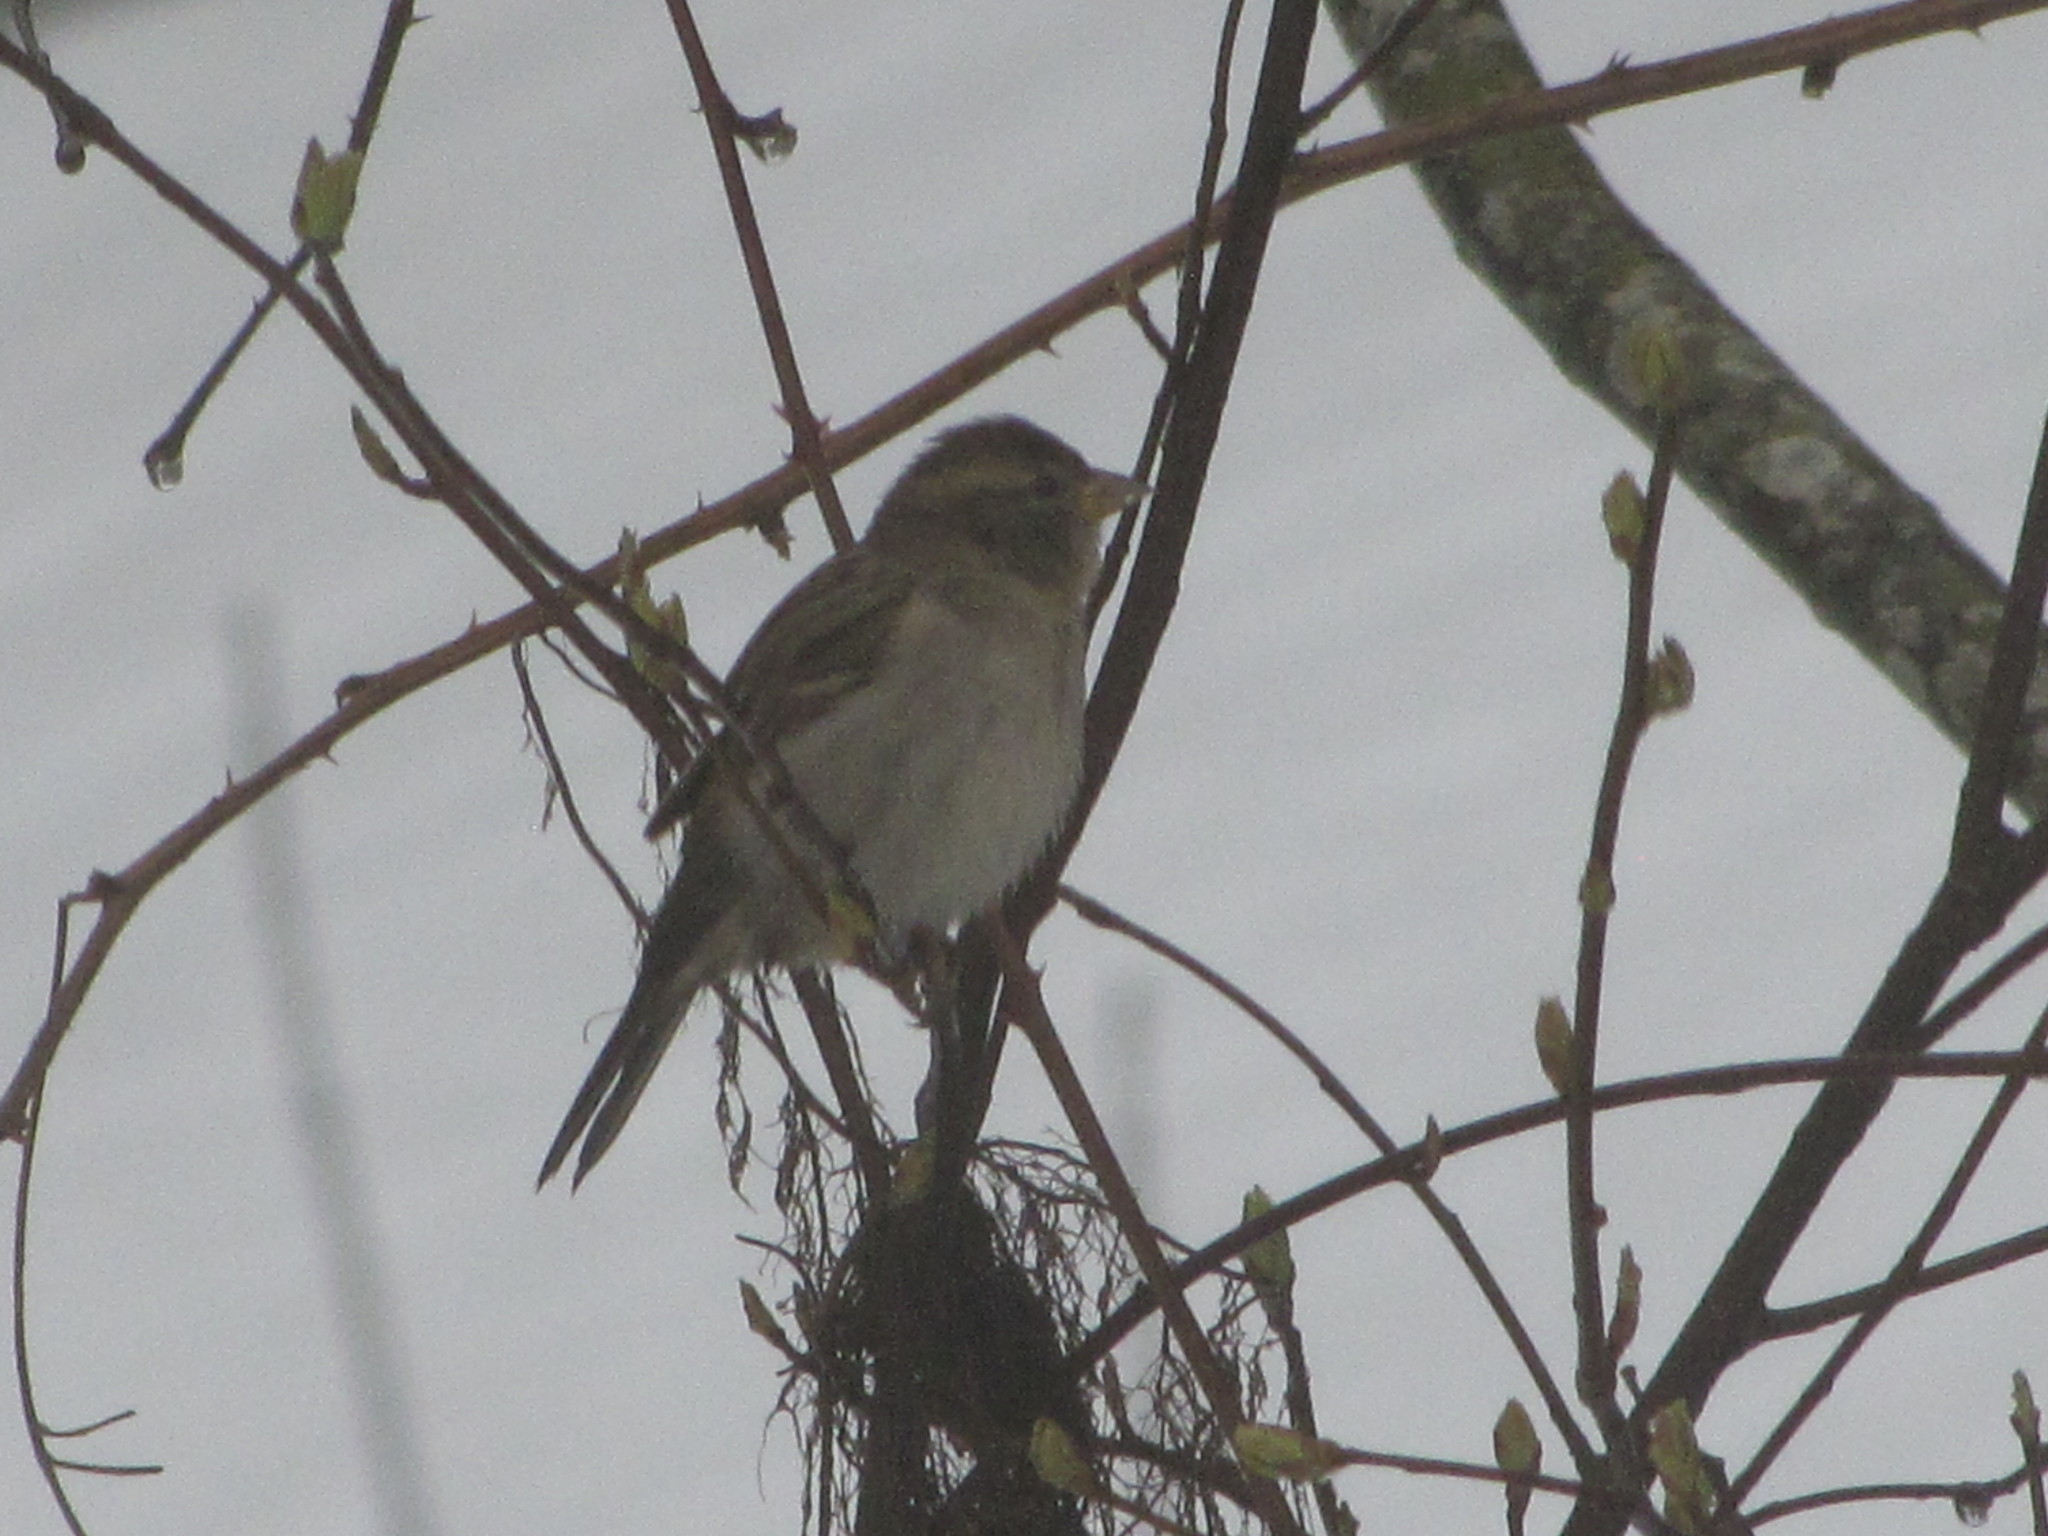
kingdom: Animalia
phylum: Chordata
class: Aves
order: Passeriformes
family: Passeridae
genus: Passer
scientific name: Passer domesticus
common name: House sparrow
